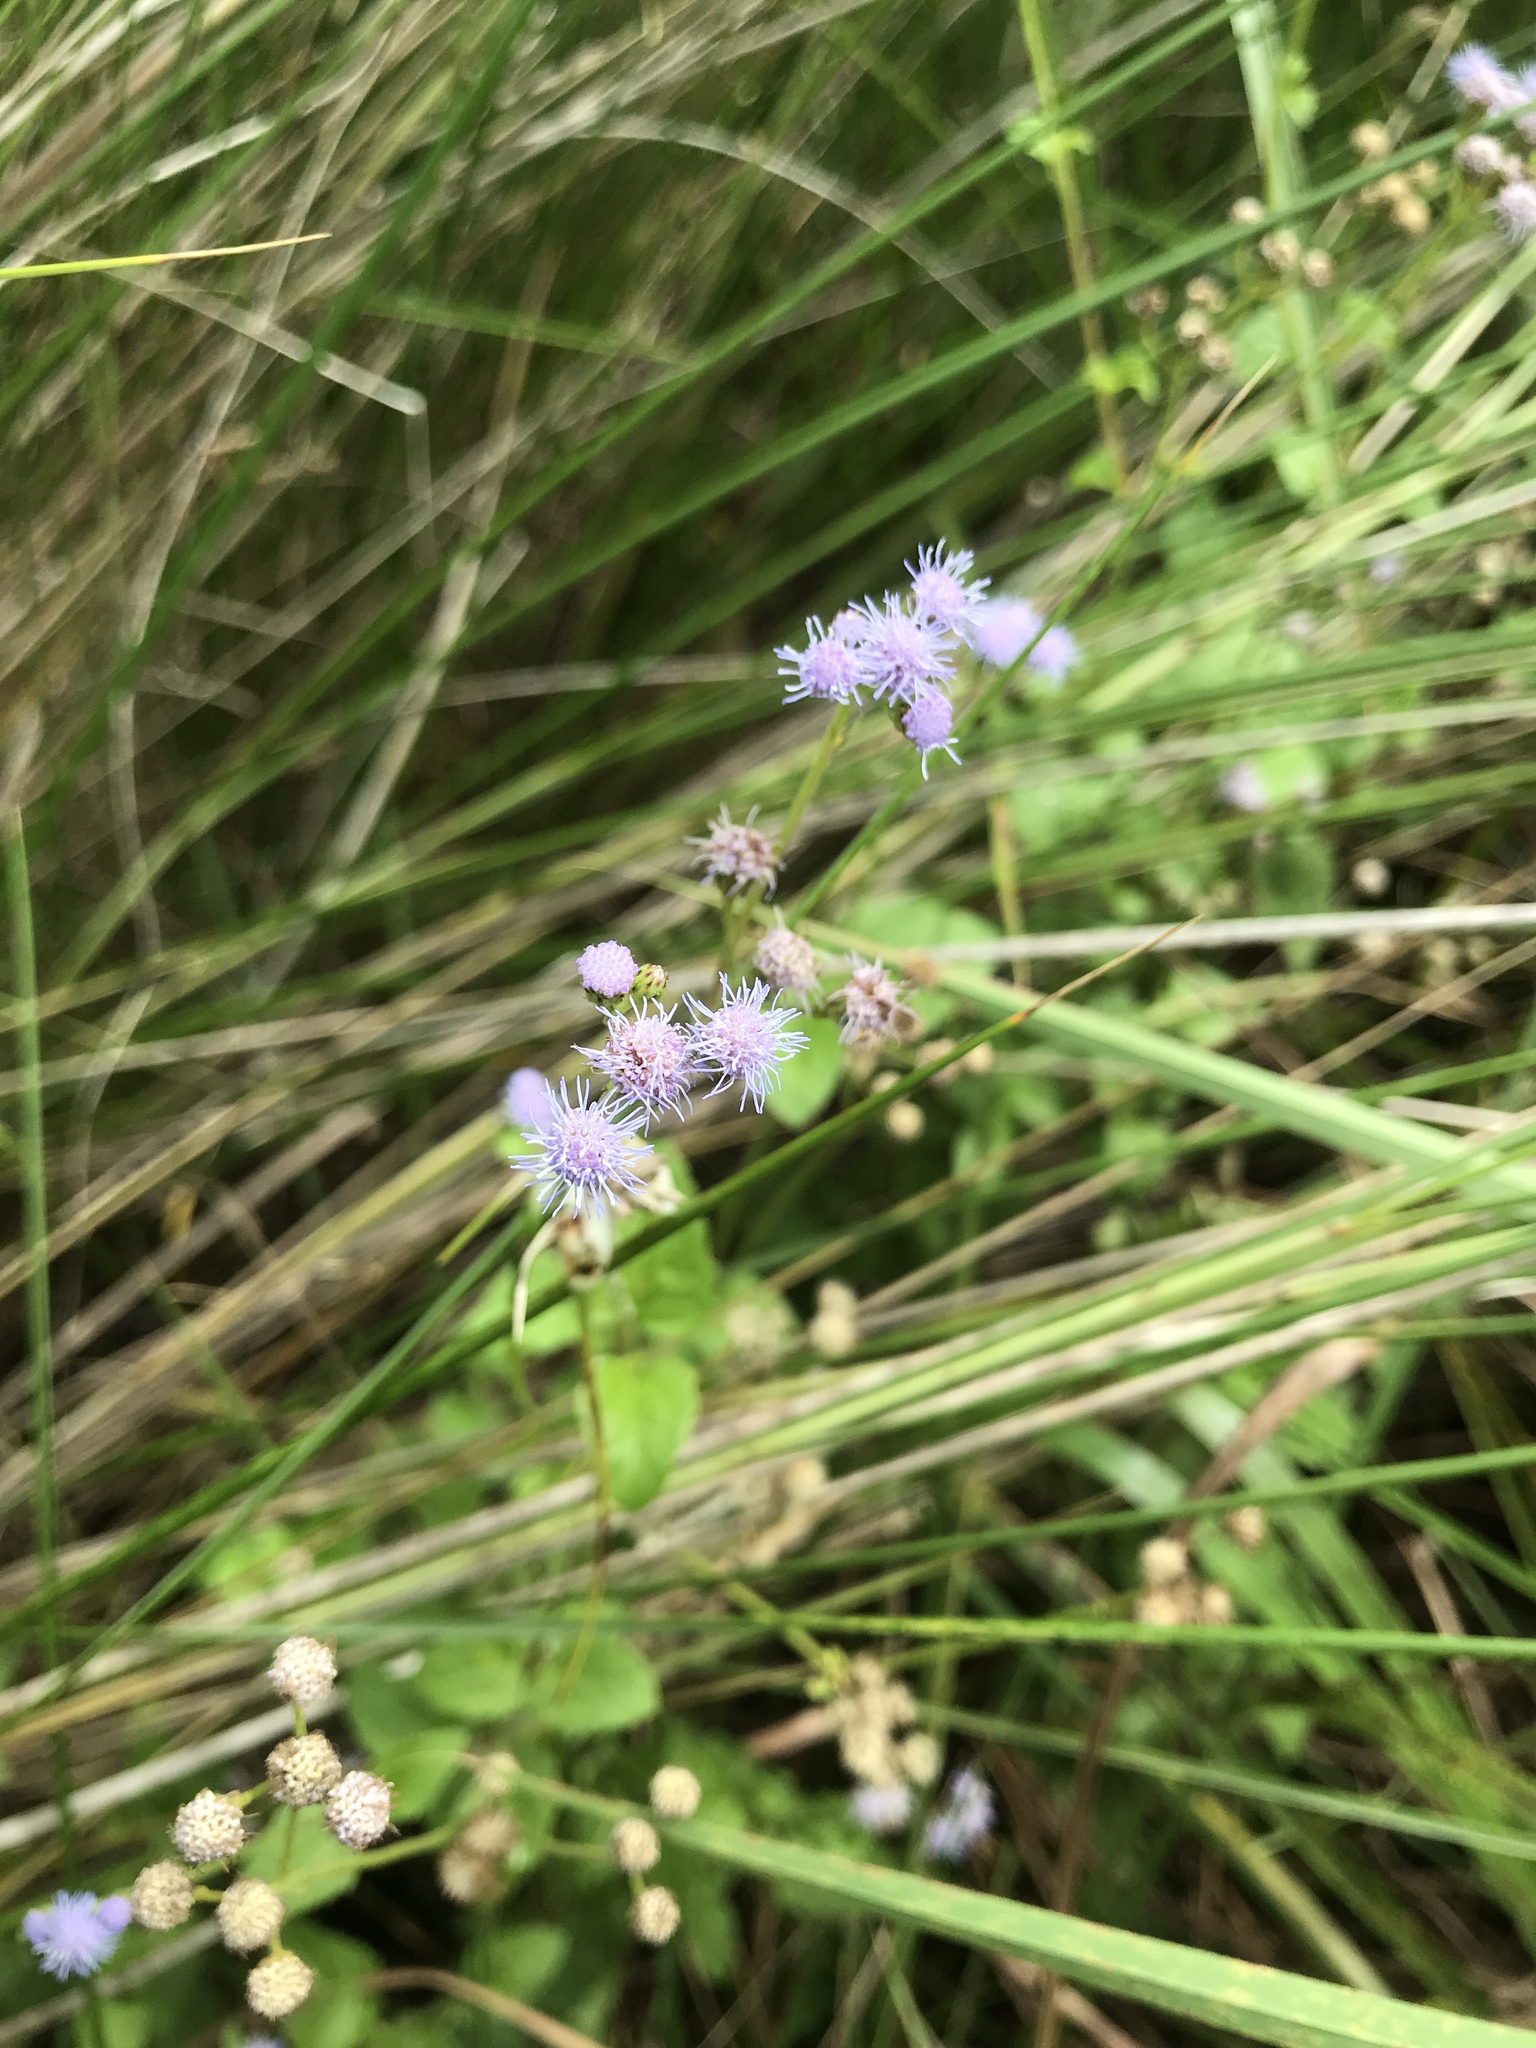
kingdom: Plantae
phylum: Tracheophyta
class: Magnoliopsida
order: Asterales
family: Asteraceae
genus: Conoclinium
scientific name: Conoclinium coelestinum
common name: Blue mistflower
